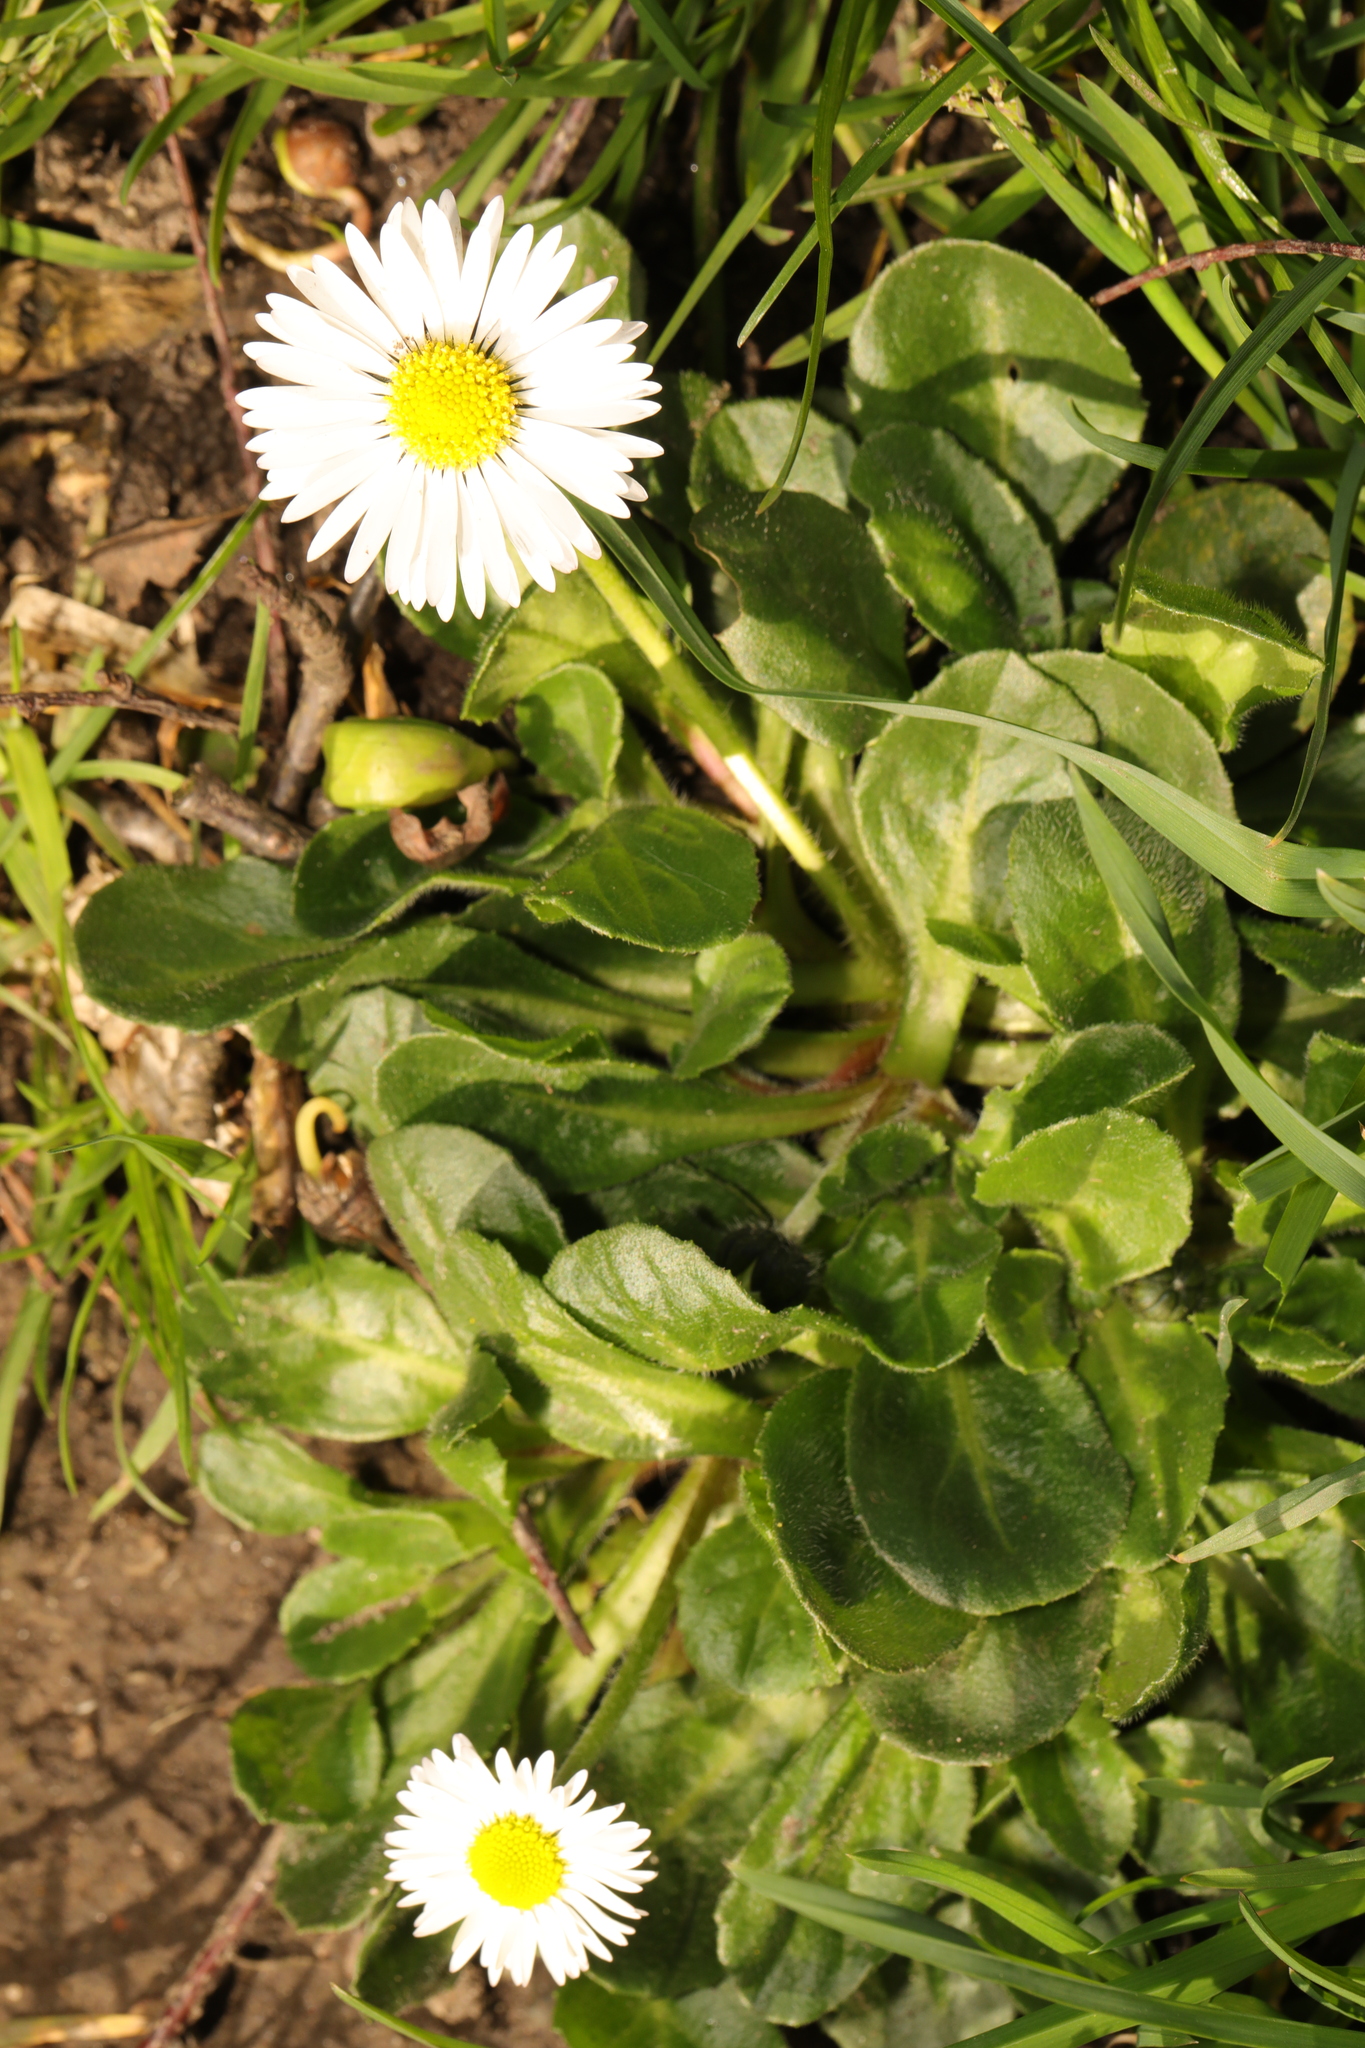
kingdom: Plantae
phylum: Tracheophyta
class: Magnoliopsida
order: Asterales
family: Asteraceae
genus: Bellis
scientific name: Bellis perennis
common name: Lawndaisy
